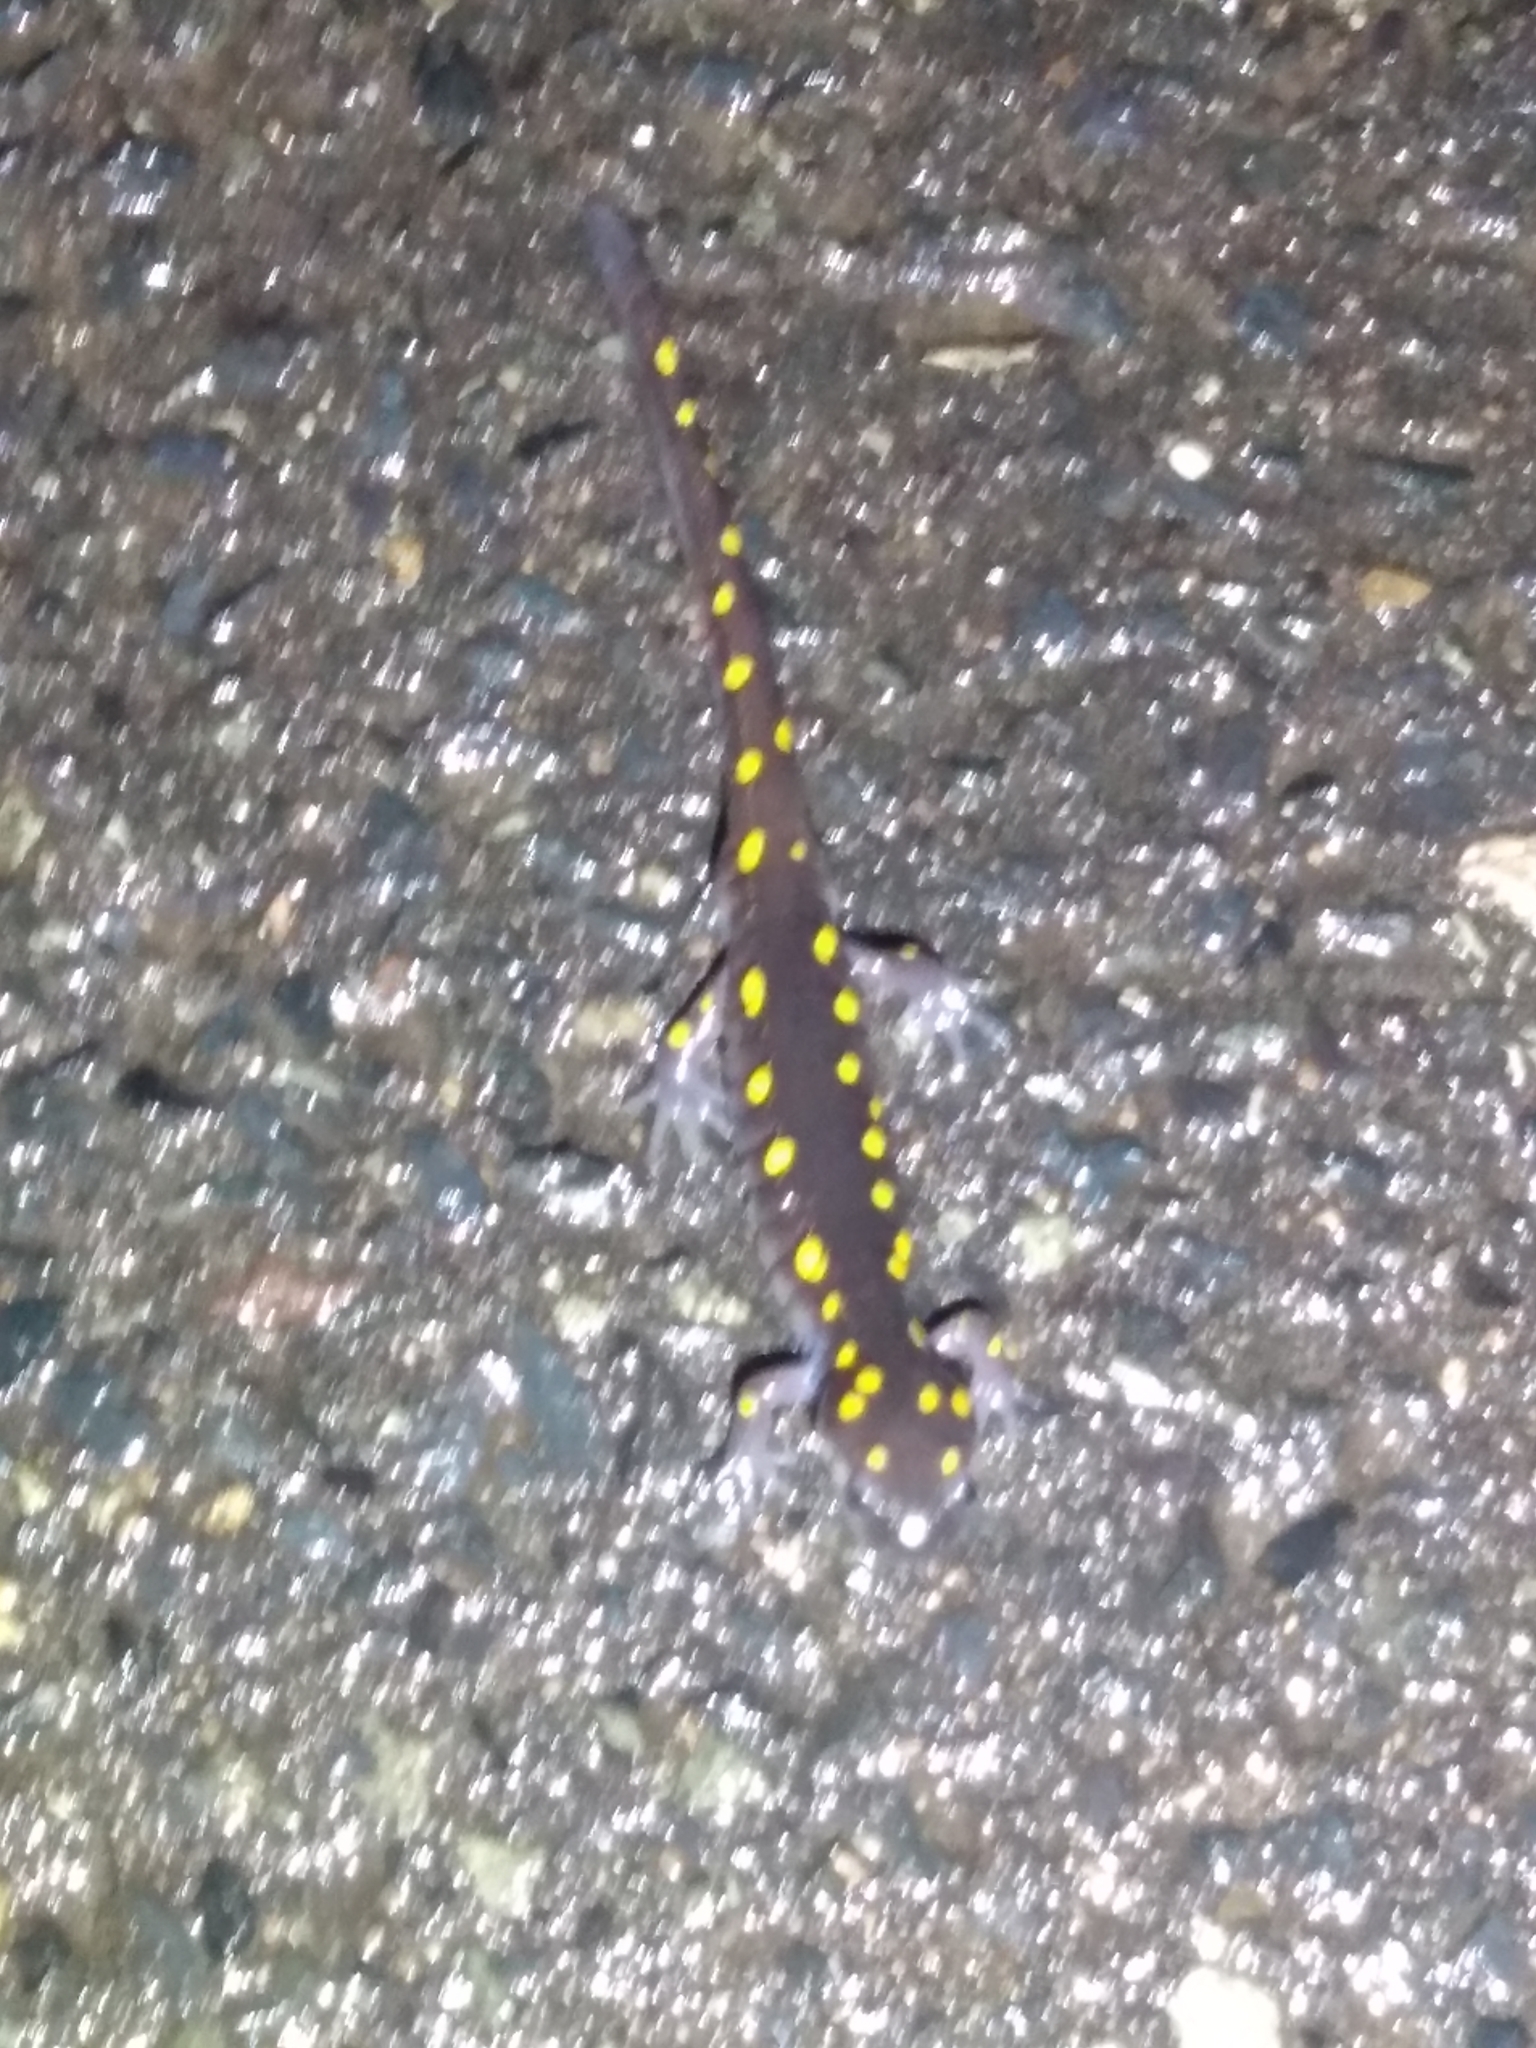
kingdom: Animalia
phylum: Chordata
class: Amphibia
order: Caudata
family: Ambystomatidae
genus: Ambystoma
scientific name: Ambystoma maculatum
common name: Spotted salamander
